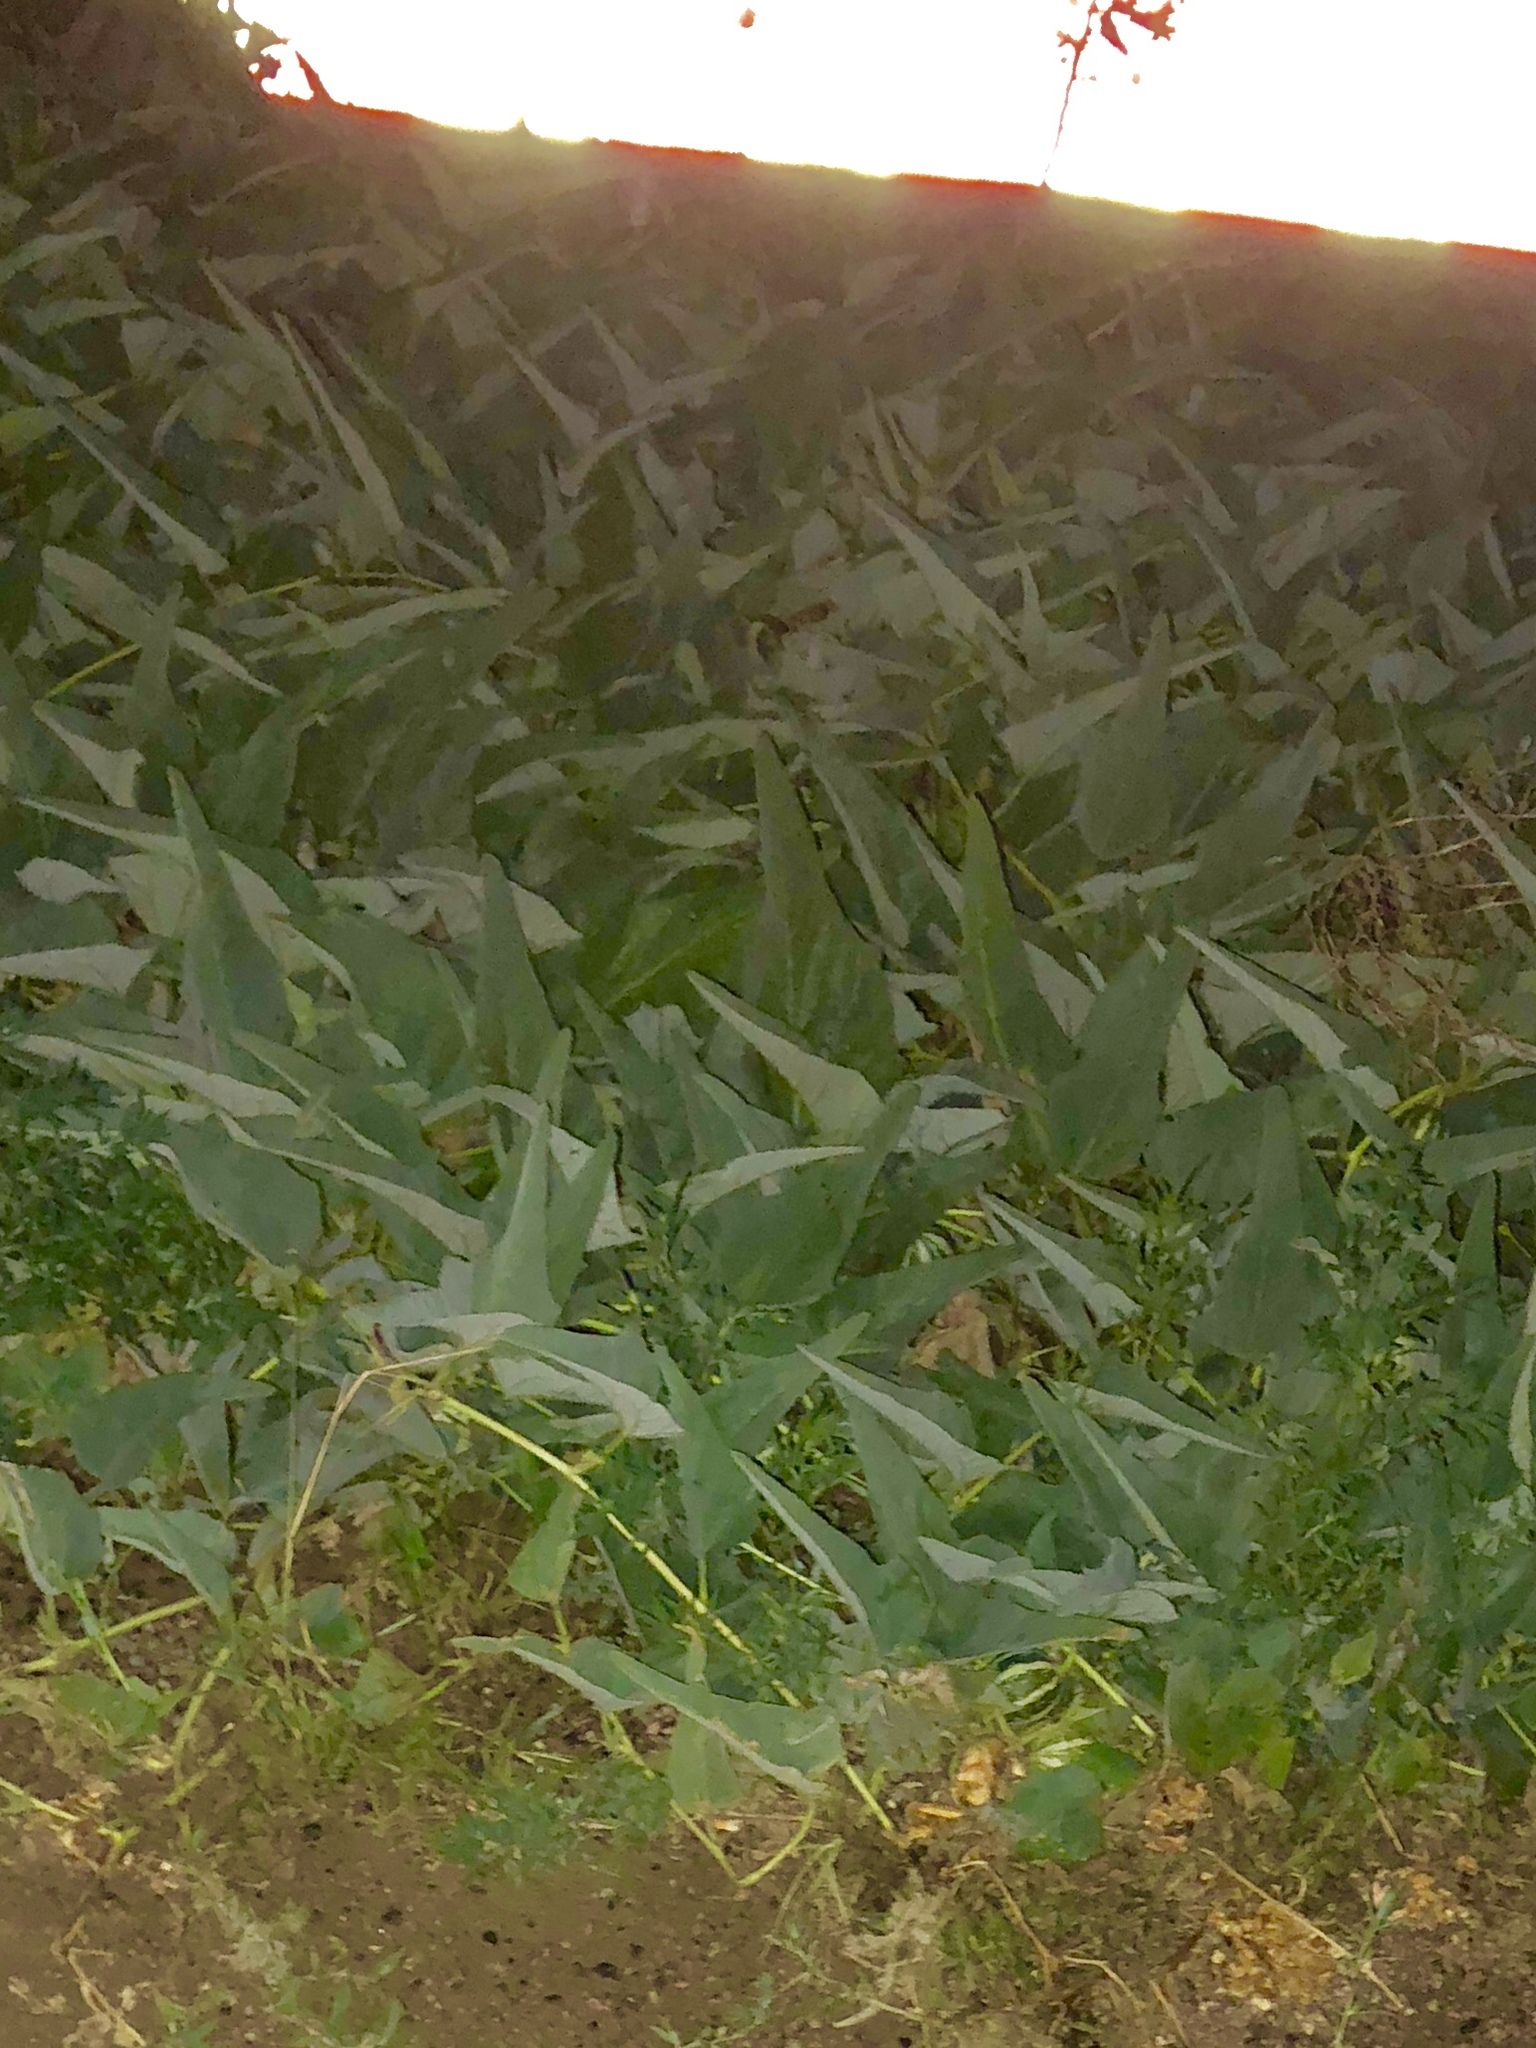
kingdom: Plantae
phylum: Tracheophyta
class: Magnoliopsida
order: Cucurbitales
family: Cucurbitaceae
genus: Cucurbita
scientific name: Cucurbita foetidissima
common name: Buffalo gourd
